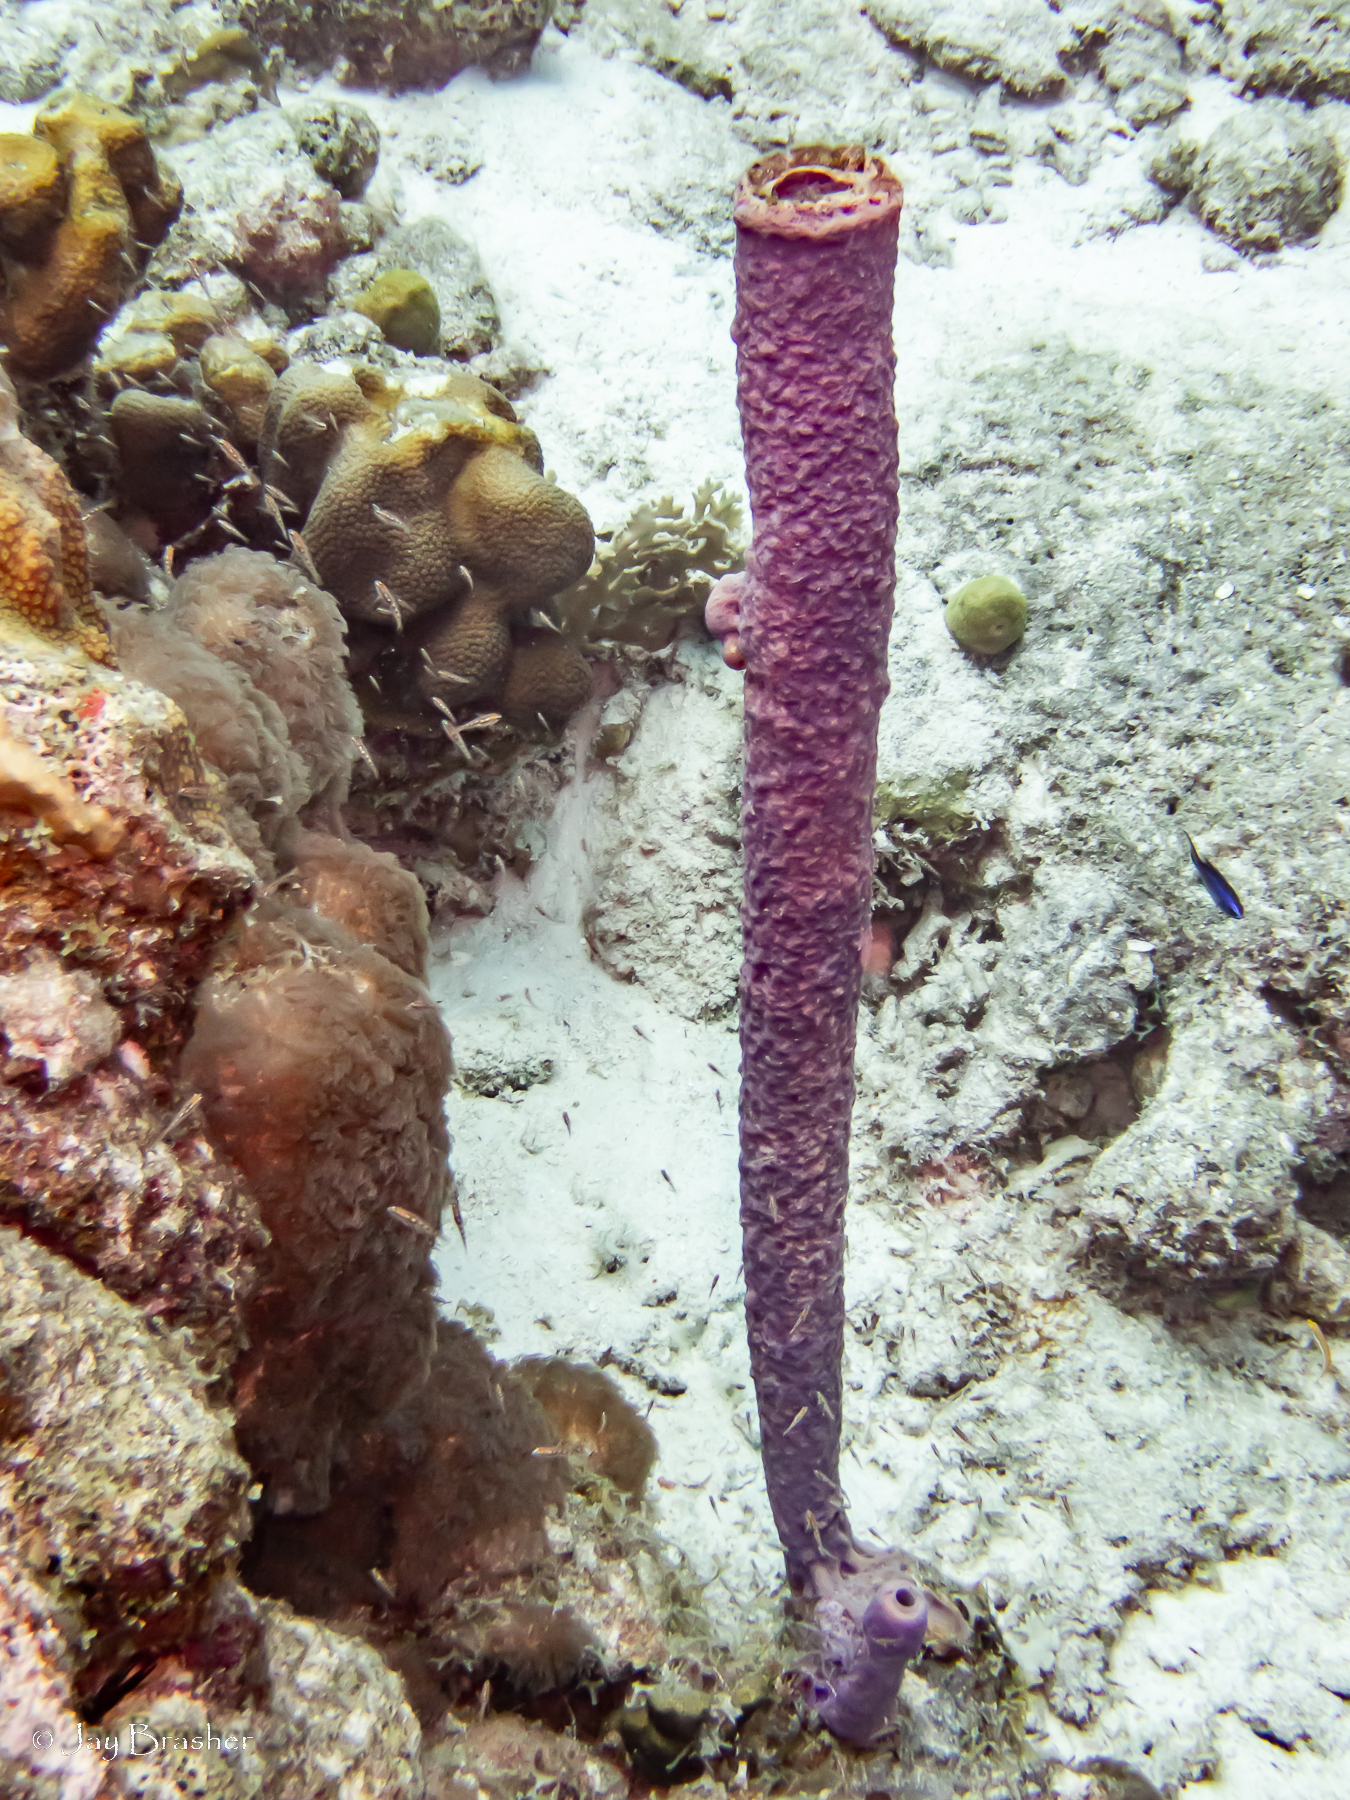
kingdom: Animalia
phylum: Porifera
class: Demospongiae
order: Verongiida
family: Aplysinidae
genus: Aplysina
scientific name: Aplysina archeri
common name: Stove-pipe sponge
